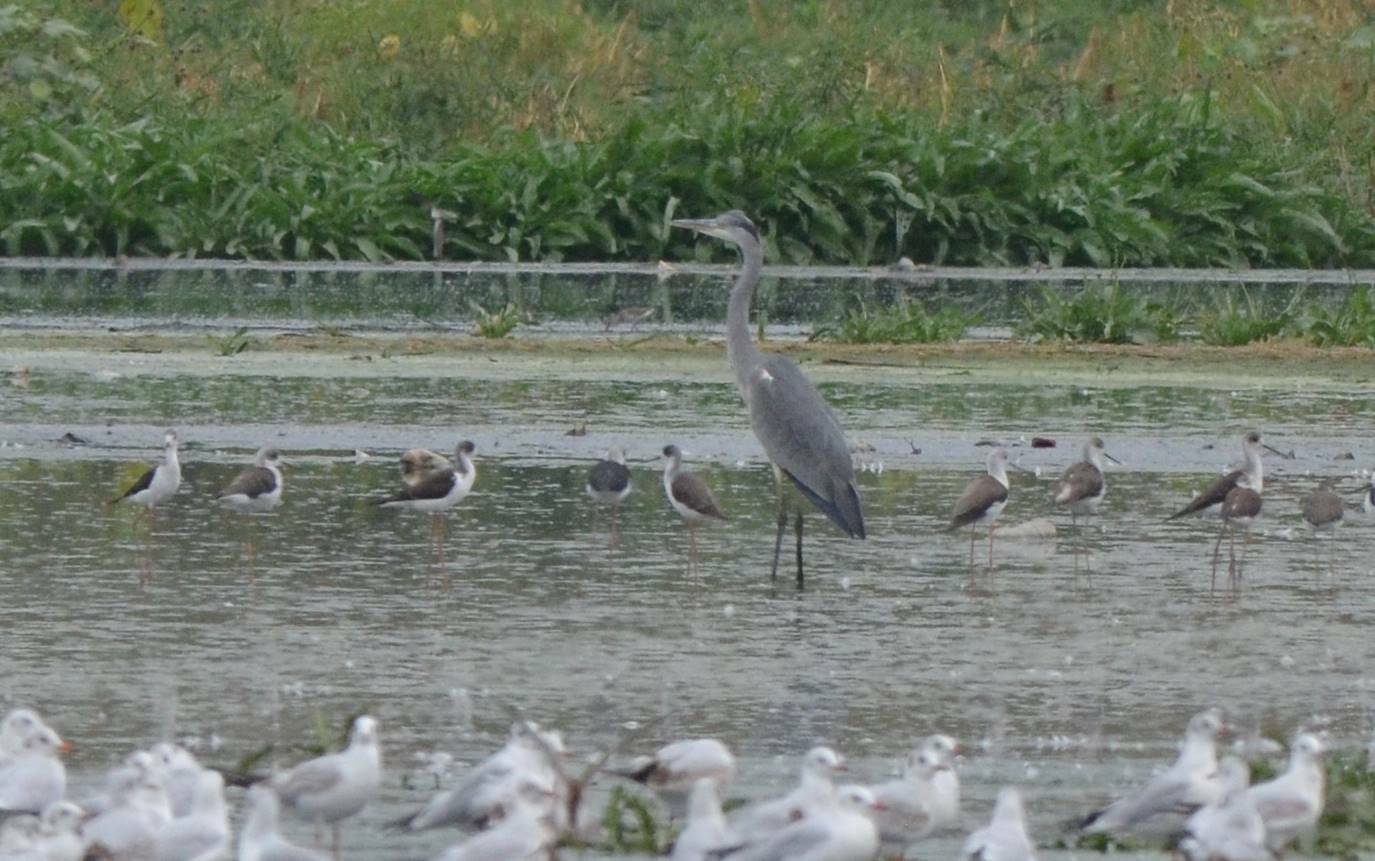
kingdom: Animalia
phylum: Chordata
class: Aves
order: Pelecaniformes
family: Ardeidae
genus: Ardea
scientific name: Ardea cinerea
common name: Grey heron
